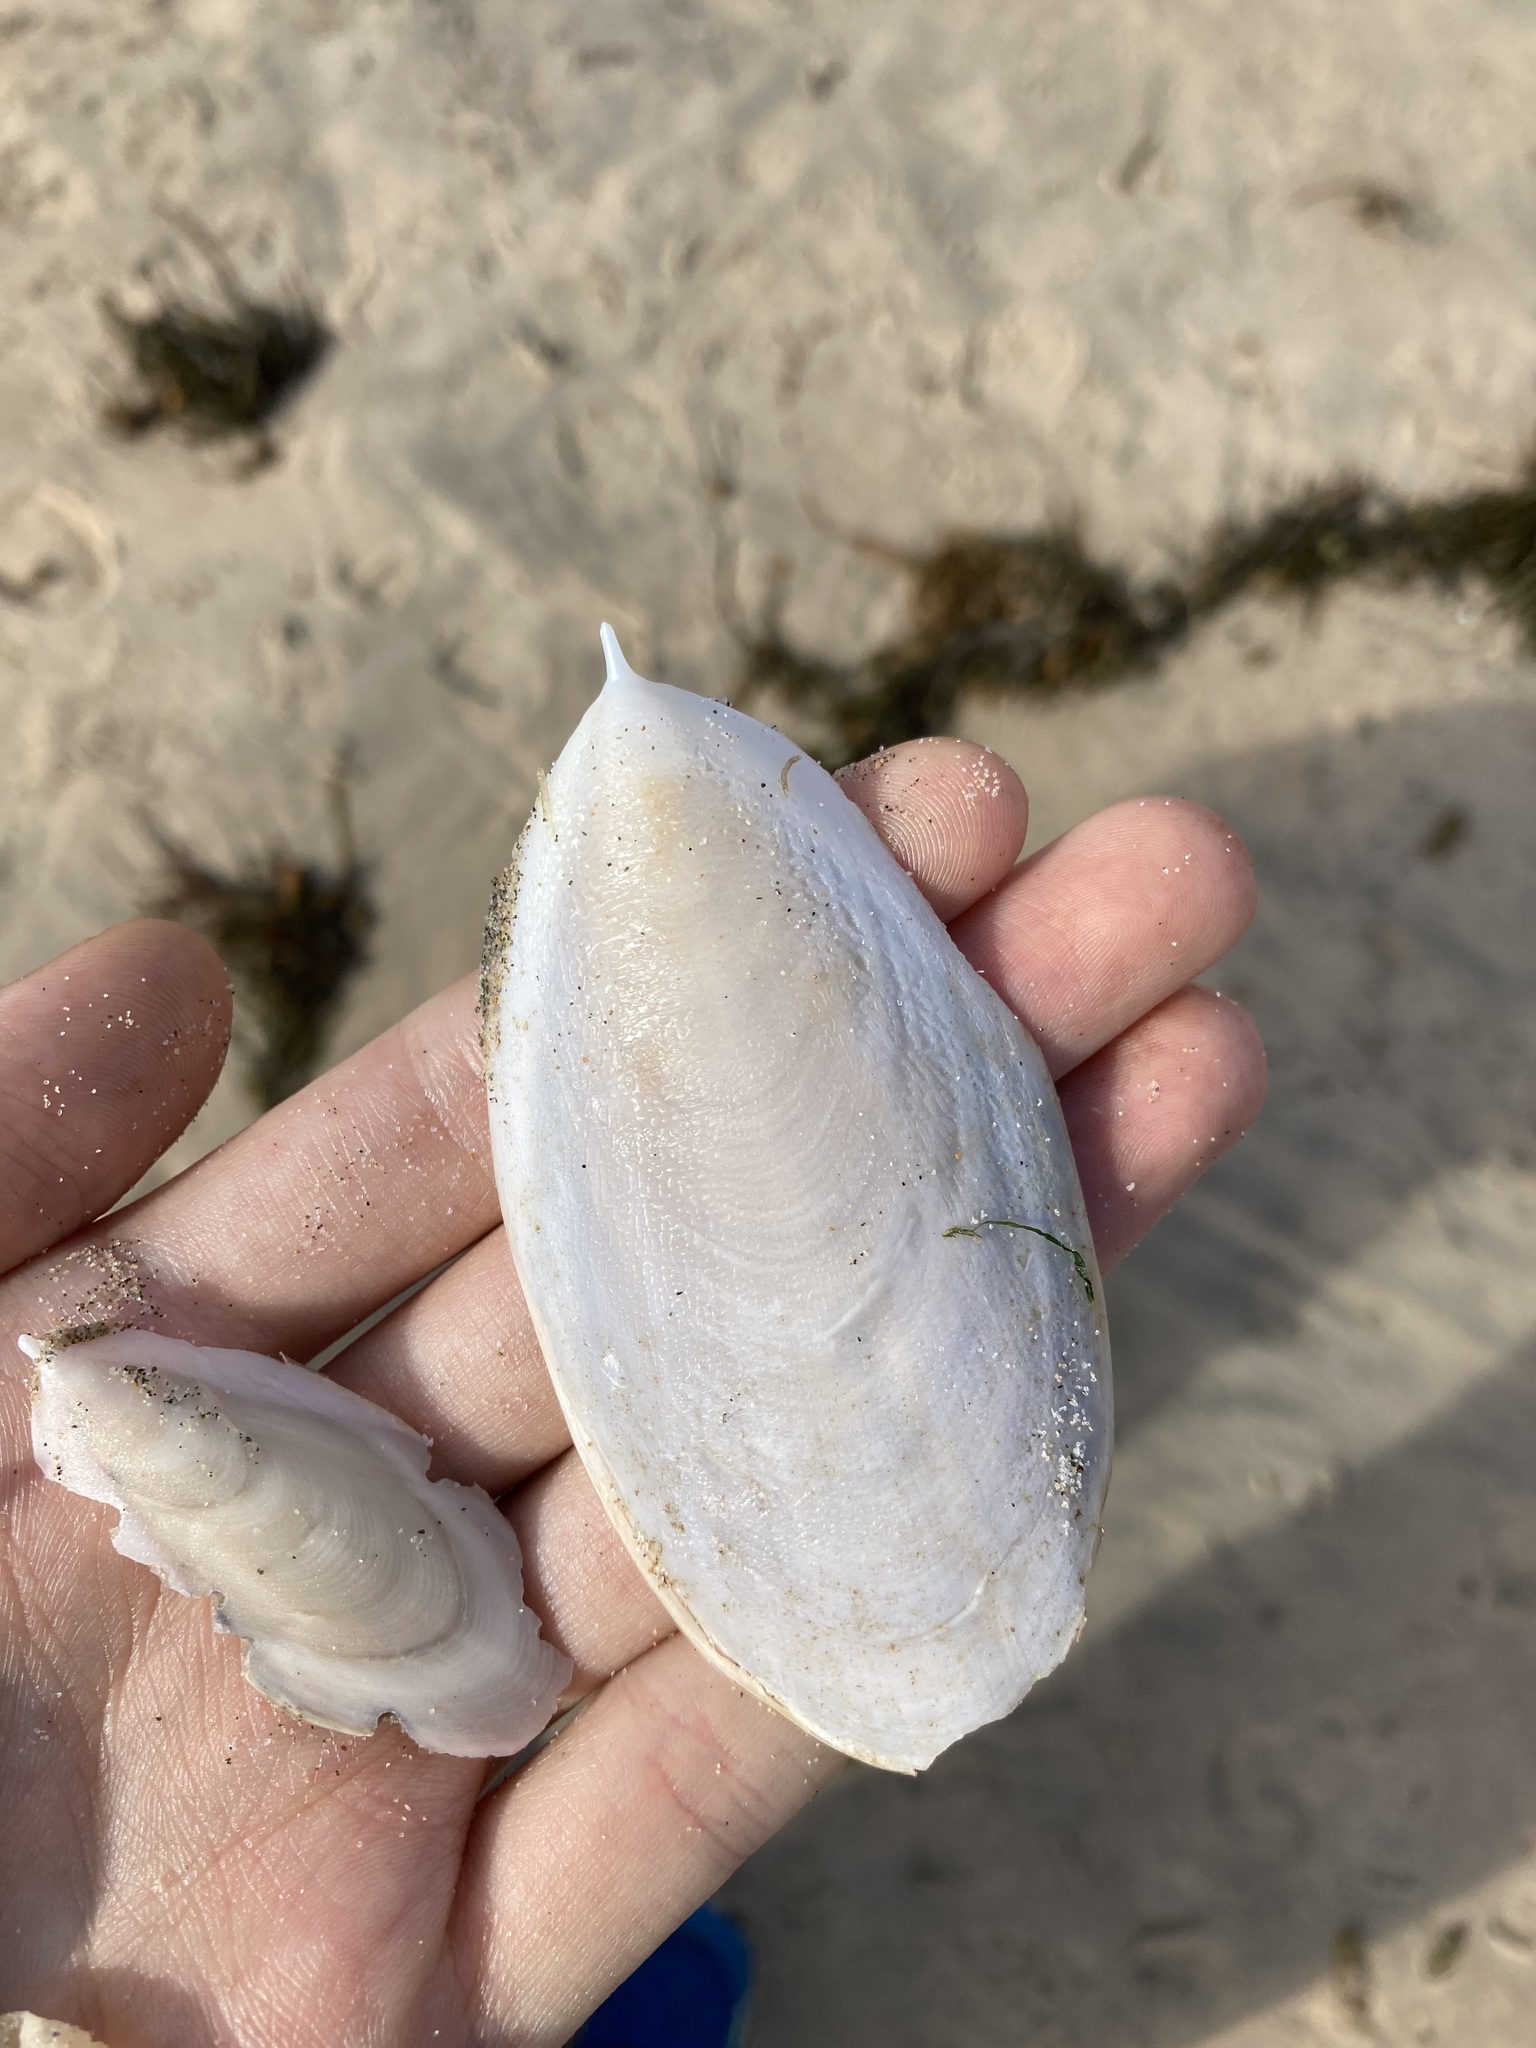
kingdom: Animalia
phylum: Mollusca
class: Cephalopoda
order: Sepiida
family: Sepiidae
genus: Ascarosepion
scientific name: Ascarosepion mestus
